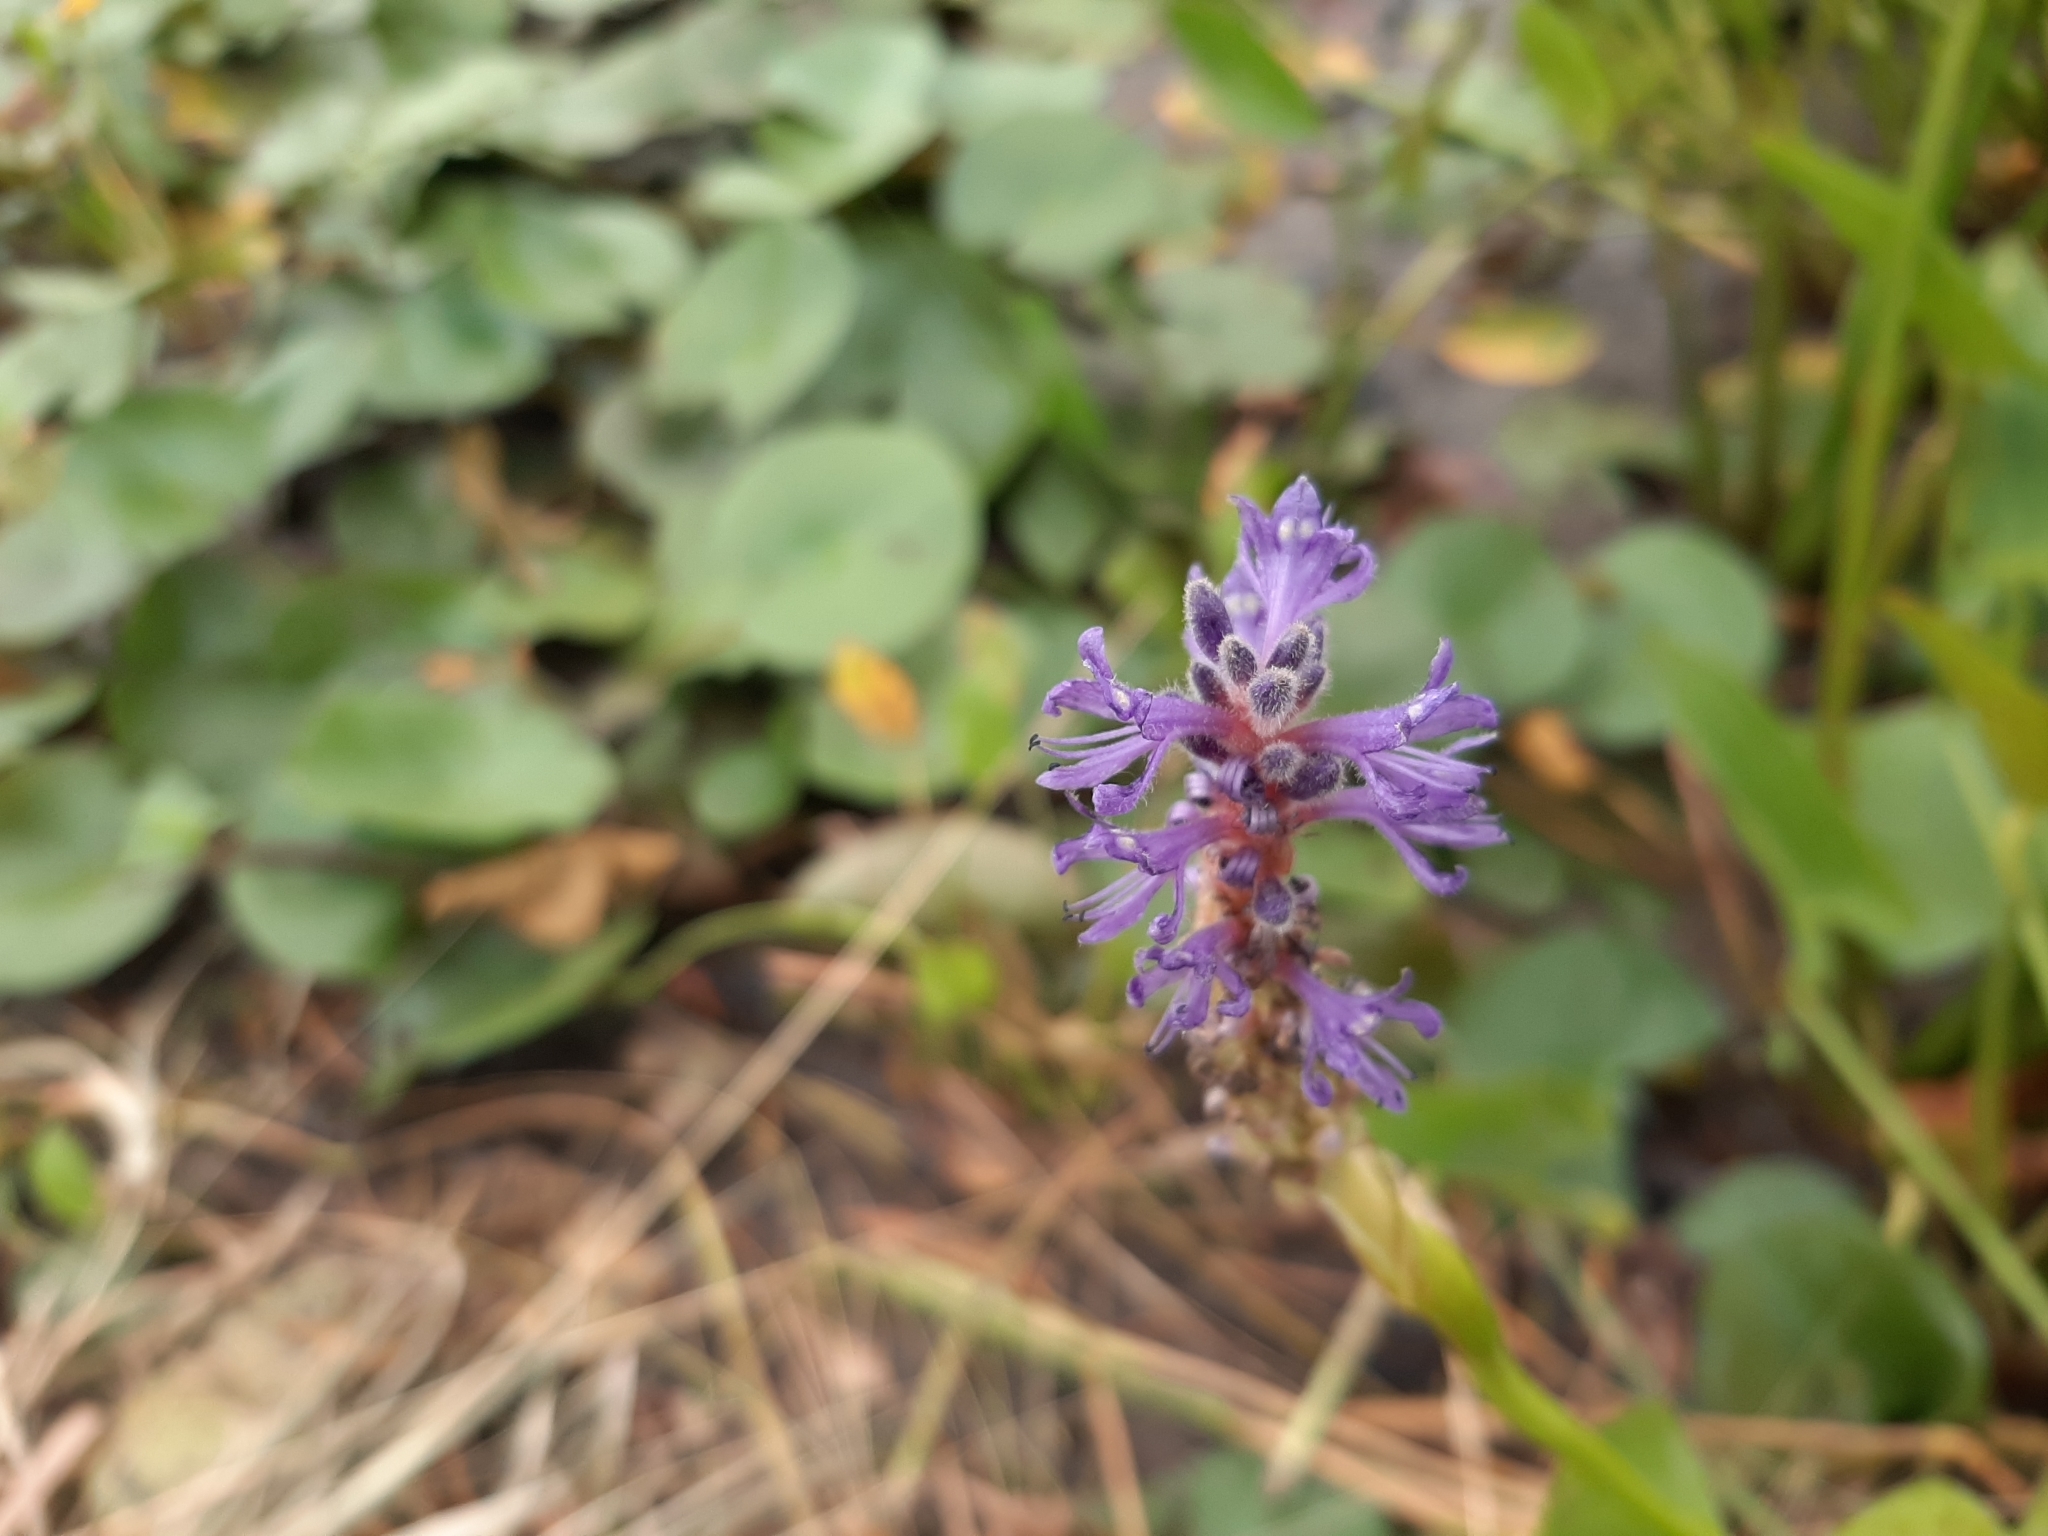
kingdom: Plantae
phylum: Tracheophyta
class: Liliopsida
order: Commelinales
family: Pontederiaceae
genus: Pontederia
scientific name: Pontederia cordata
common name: Pickerelweed
